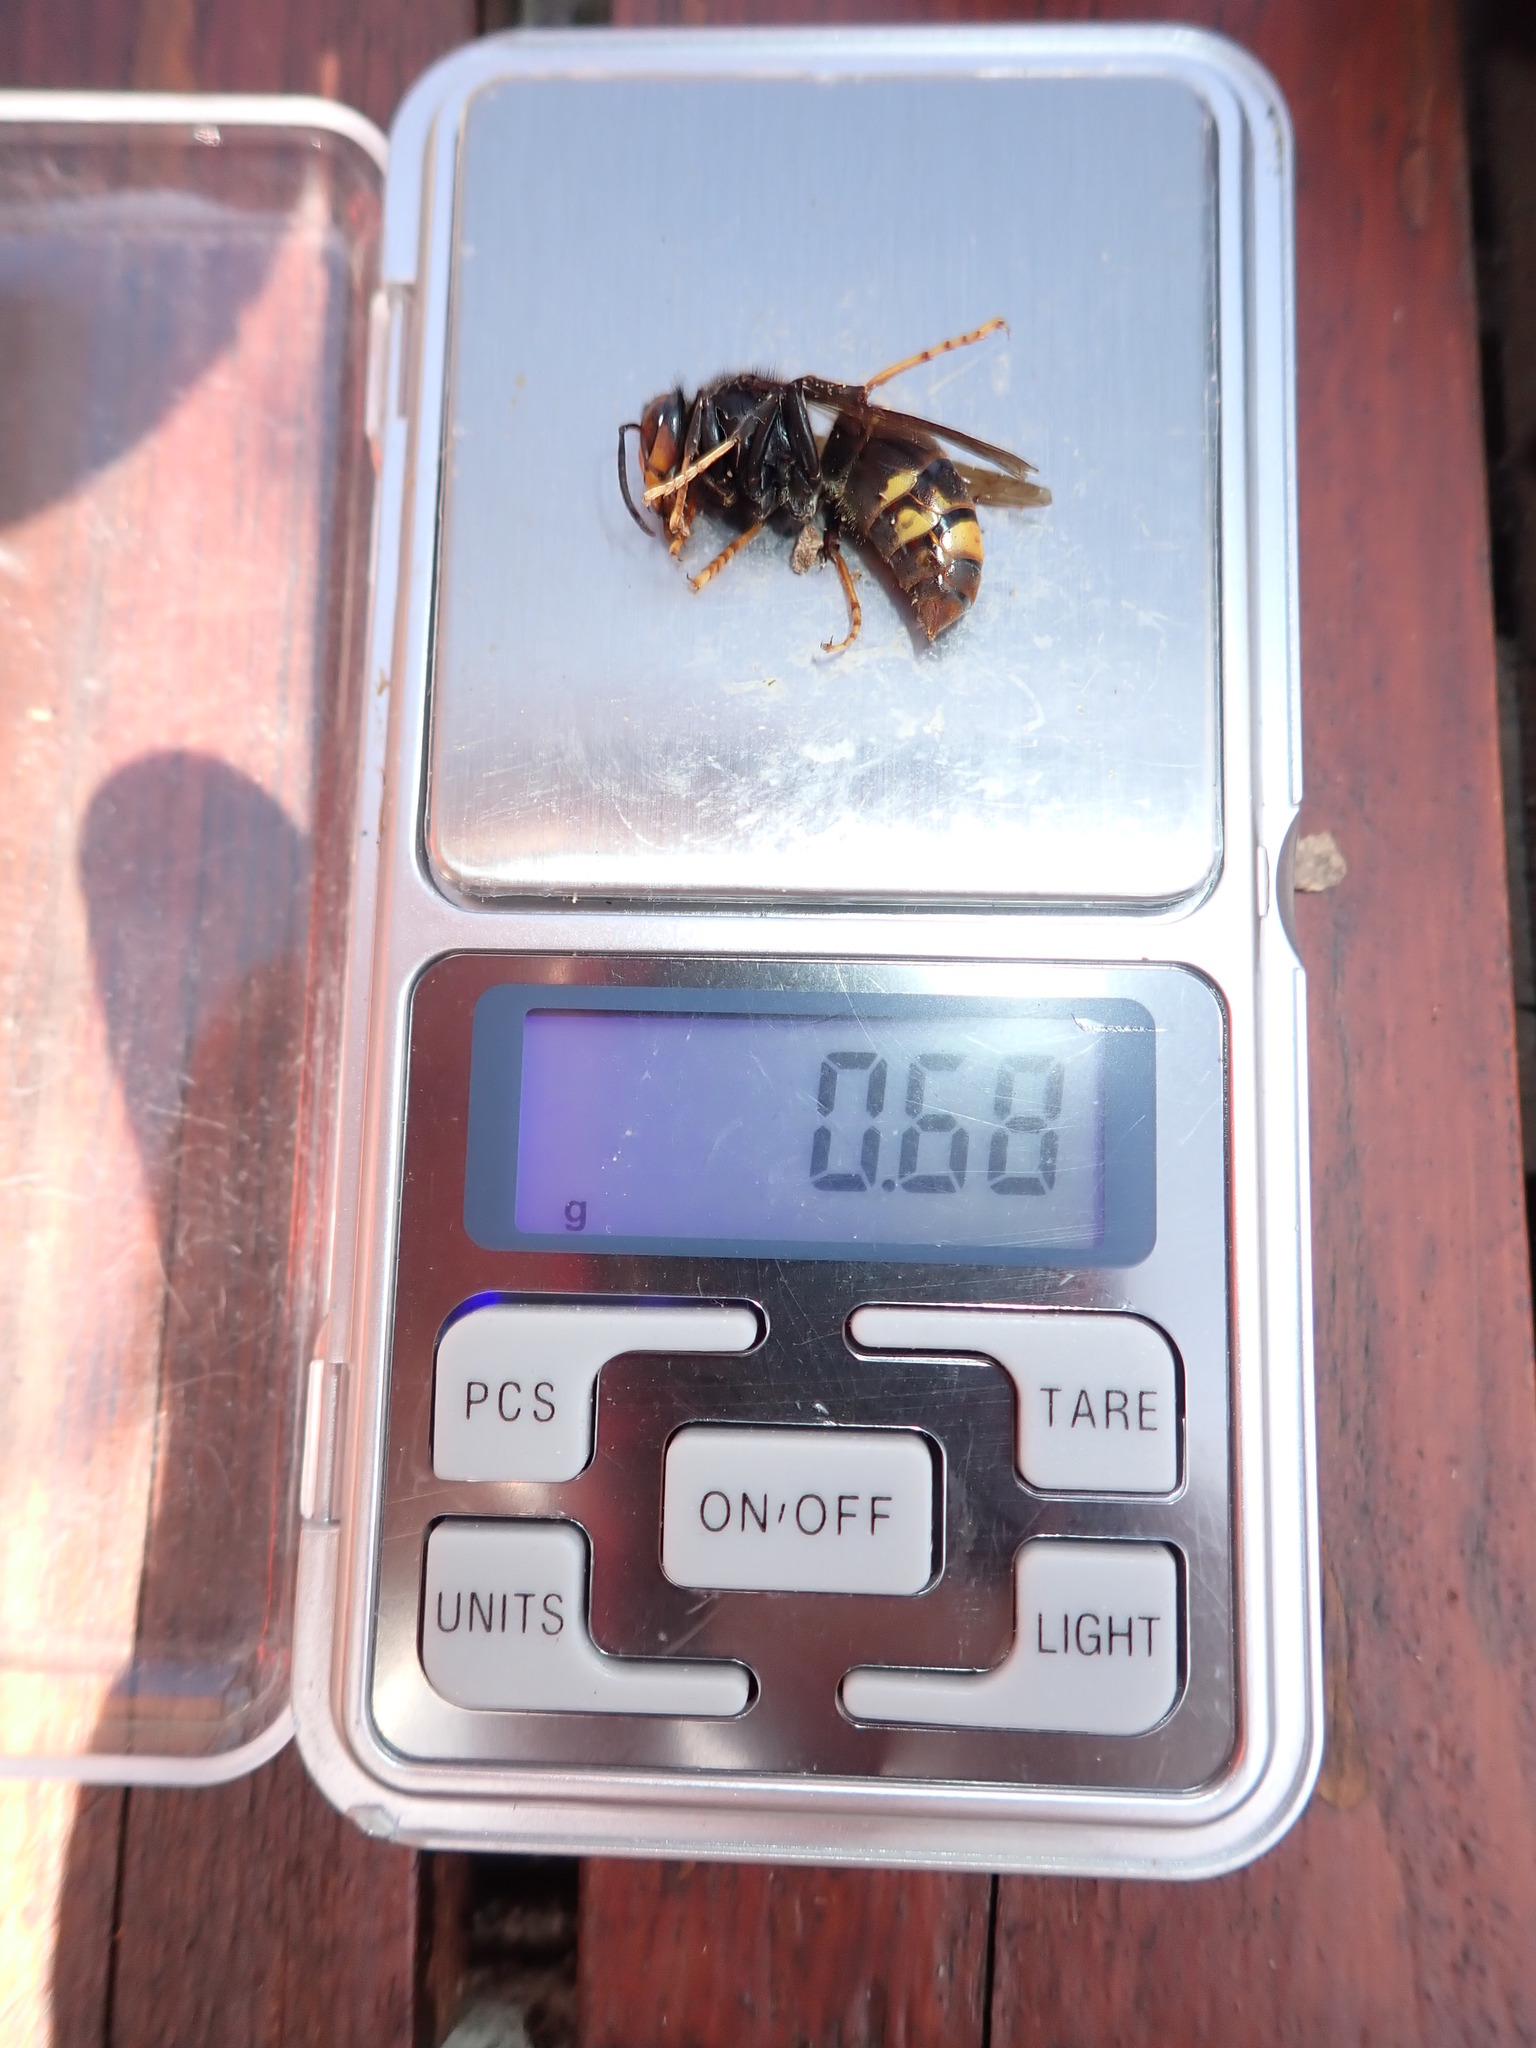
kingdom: Animalia
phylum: Arthropoda
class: Insecta
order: Hymenoptera
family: Vespidae
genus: Vespa
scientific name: Vespa velutina
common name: Asian hornet
